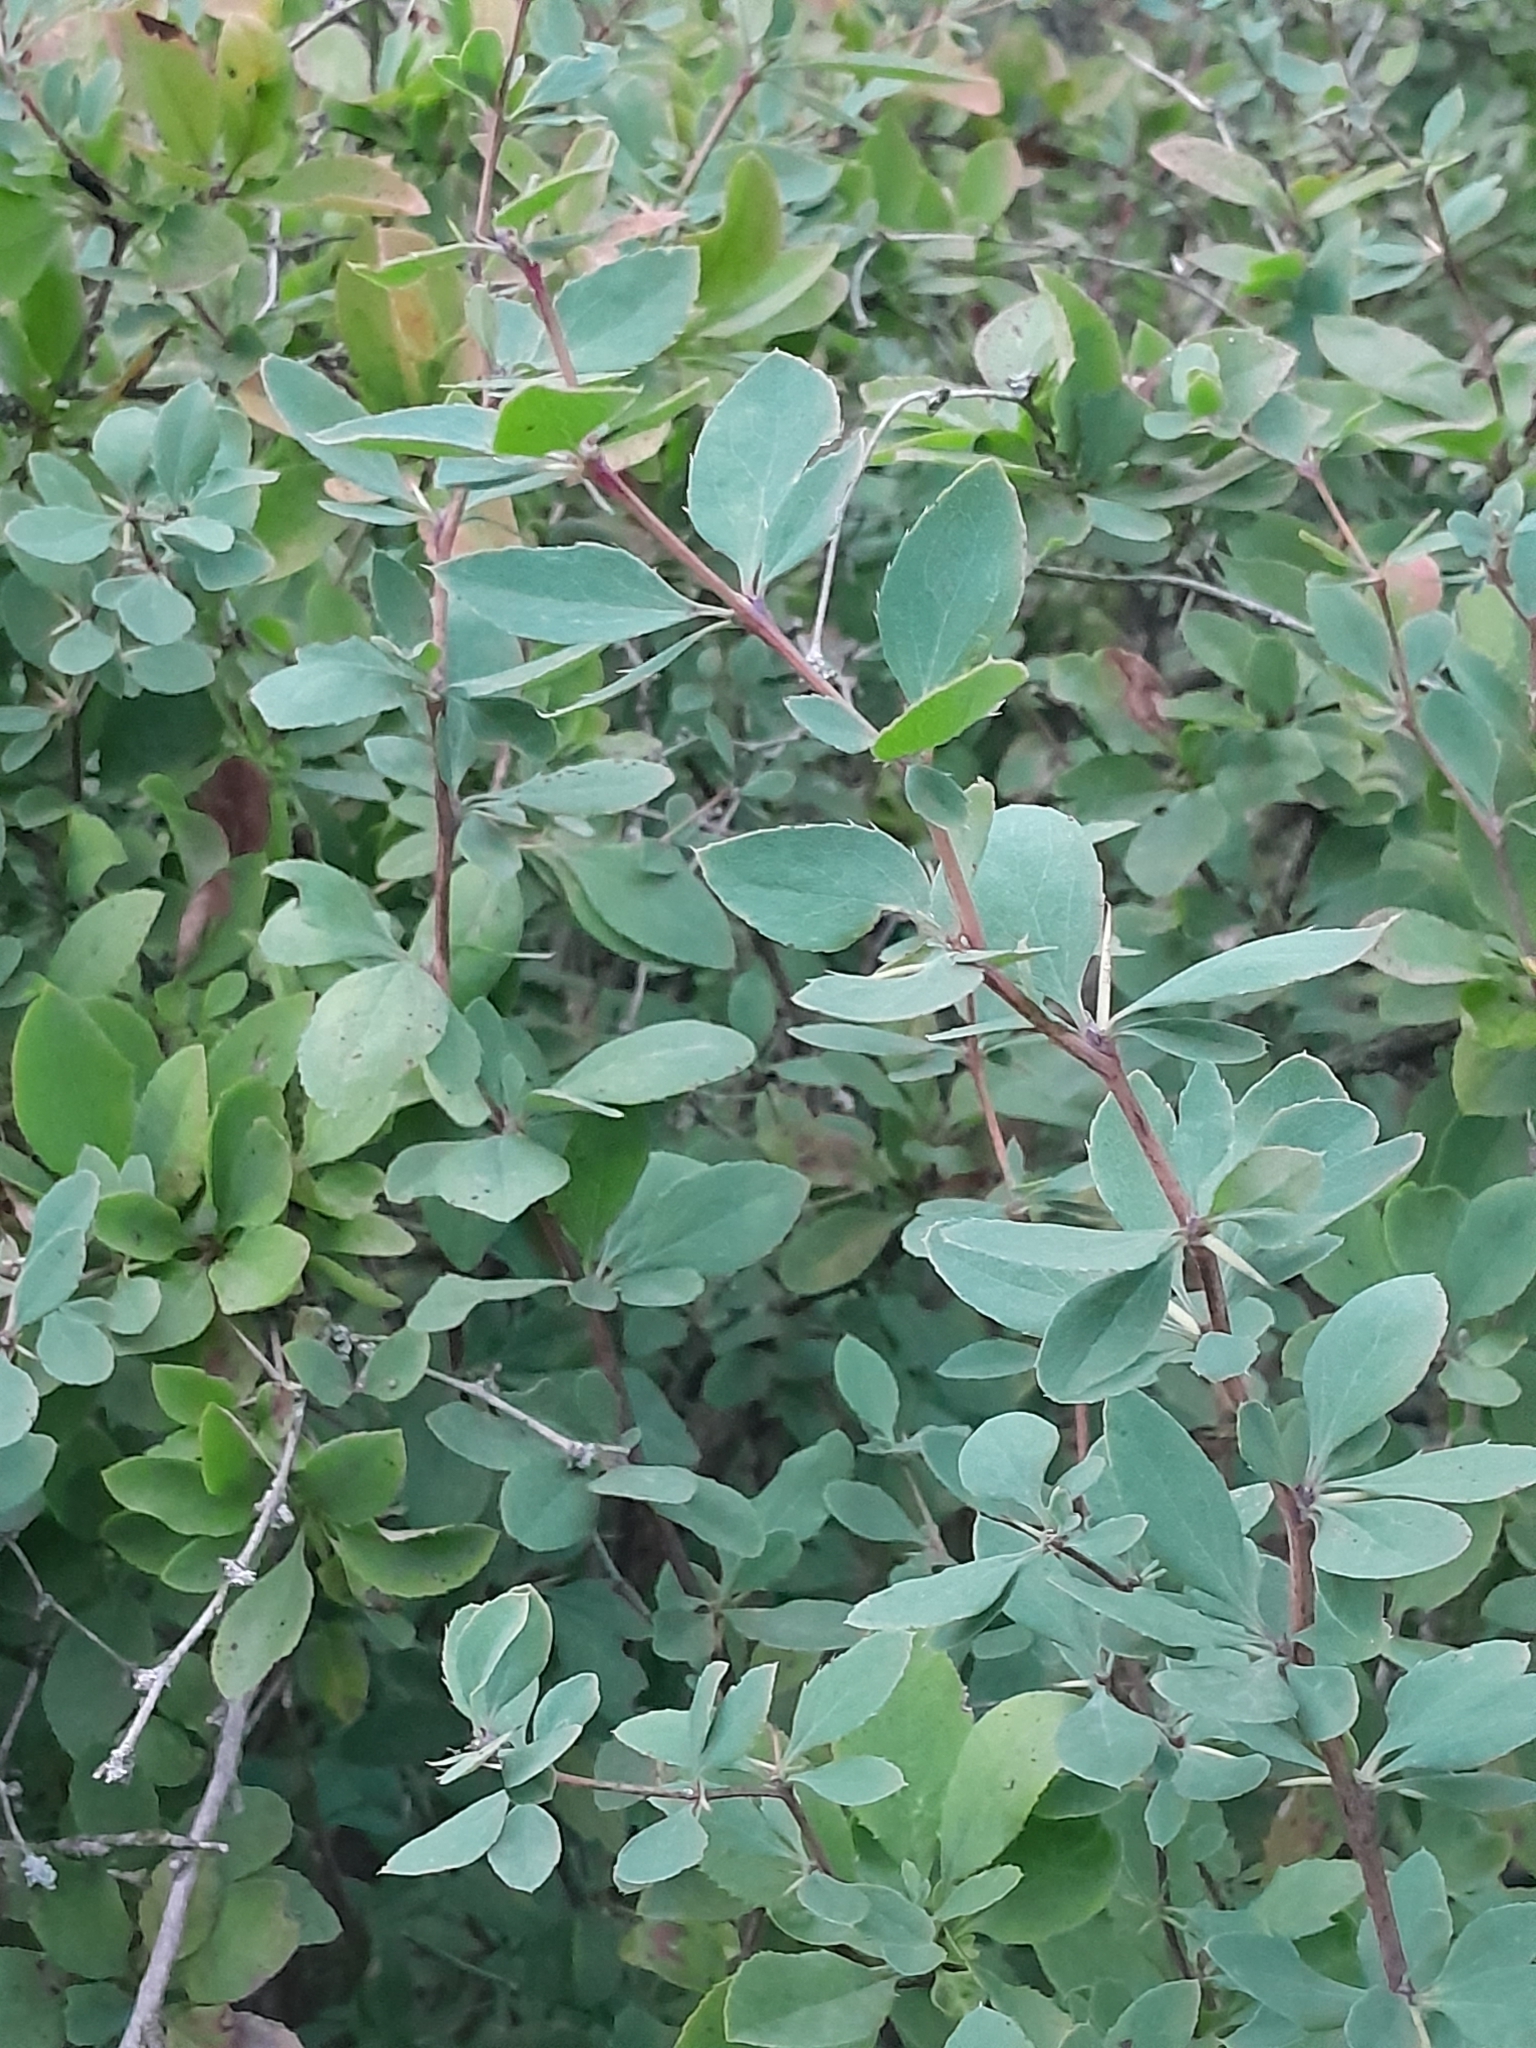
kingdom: Plantae
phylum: Tracheophyta
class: Magnoliopsida
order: Ranunculales
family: Berberidaceae
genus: Berberis
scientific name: Berberis vulgaris
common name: Barberry
